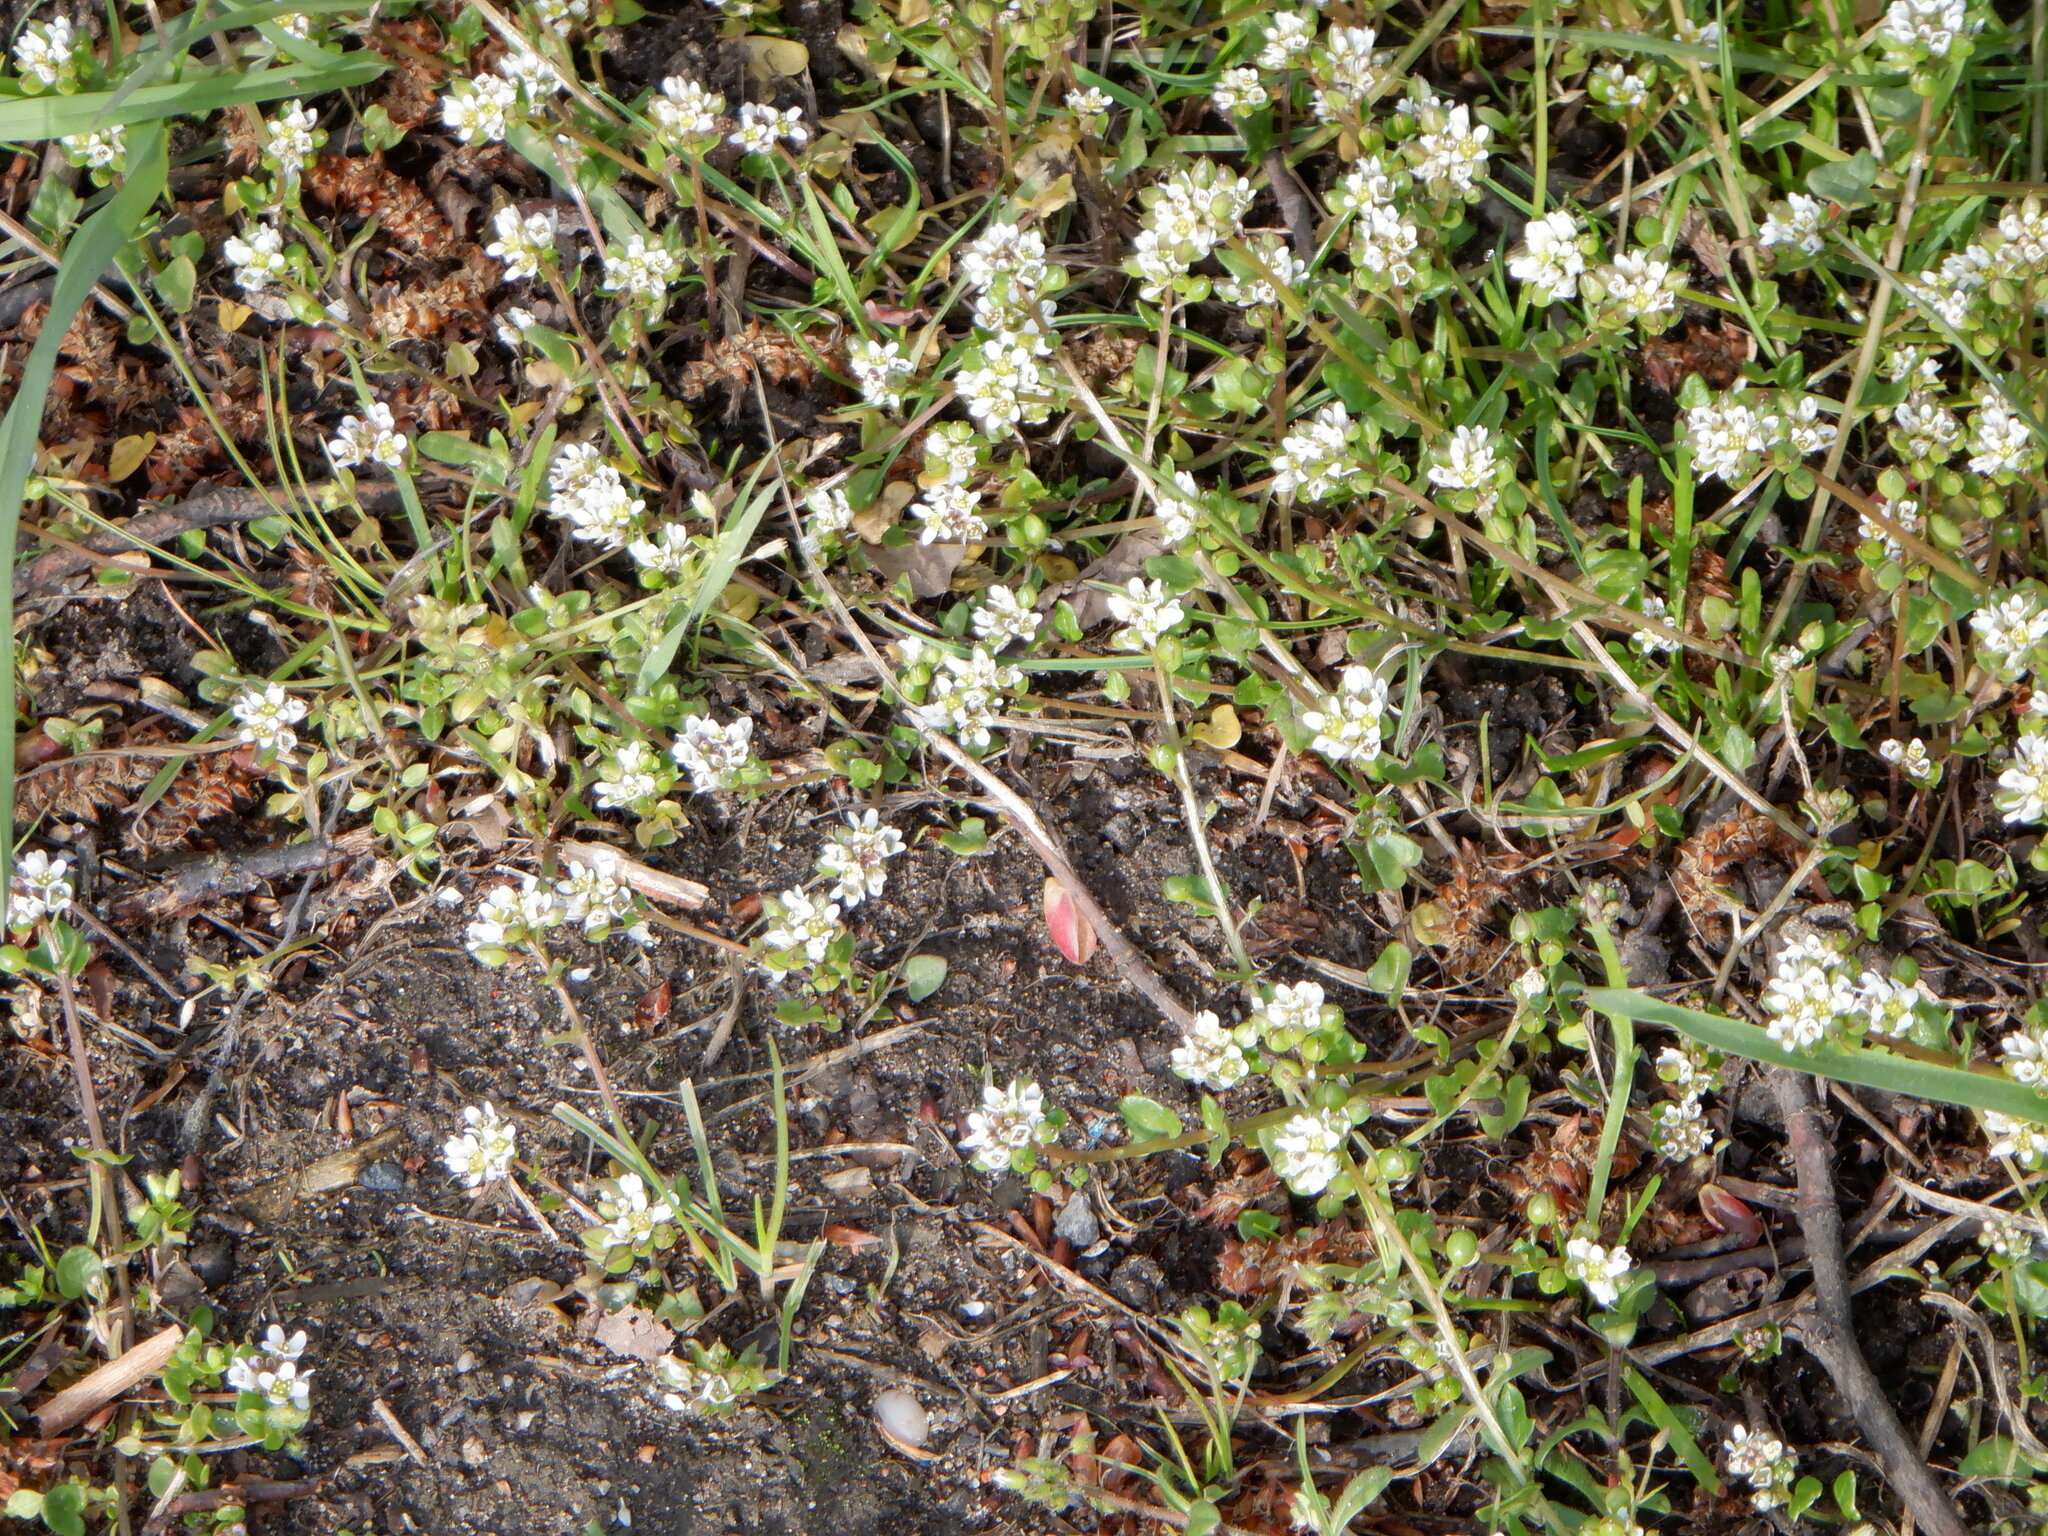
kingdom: Plantae
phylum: Tracheophyta
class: Magnoliopsida
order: Brassicales
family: Brassicaceae
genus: Cochlearia
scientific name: Cochlearia danica
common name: Early scurvygrass
